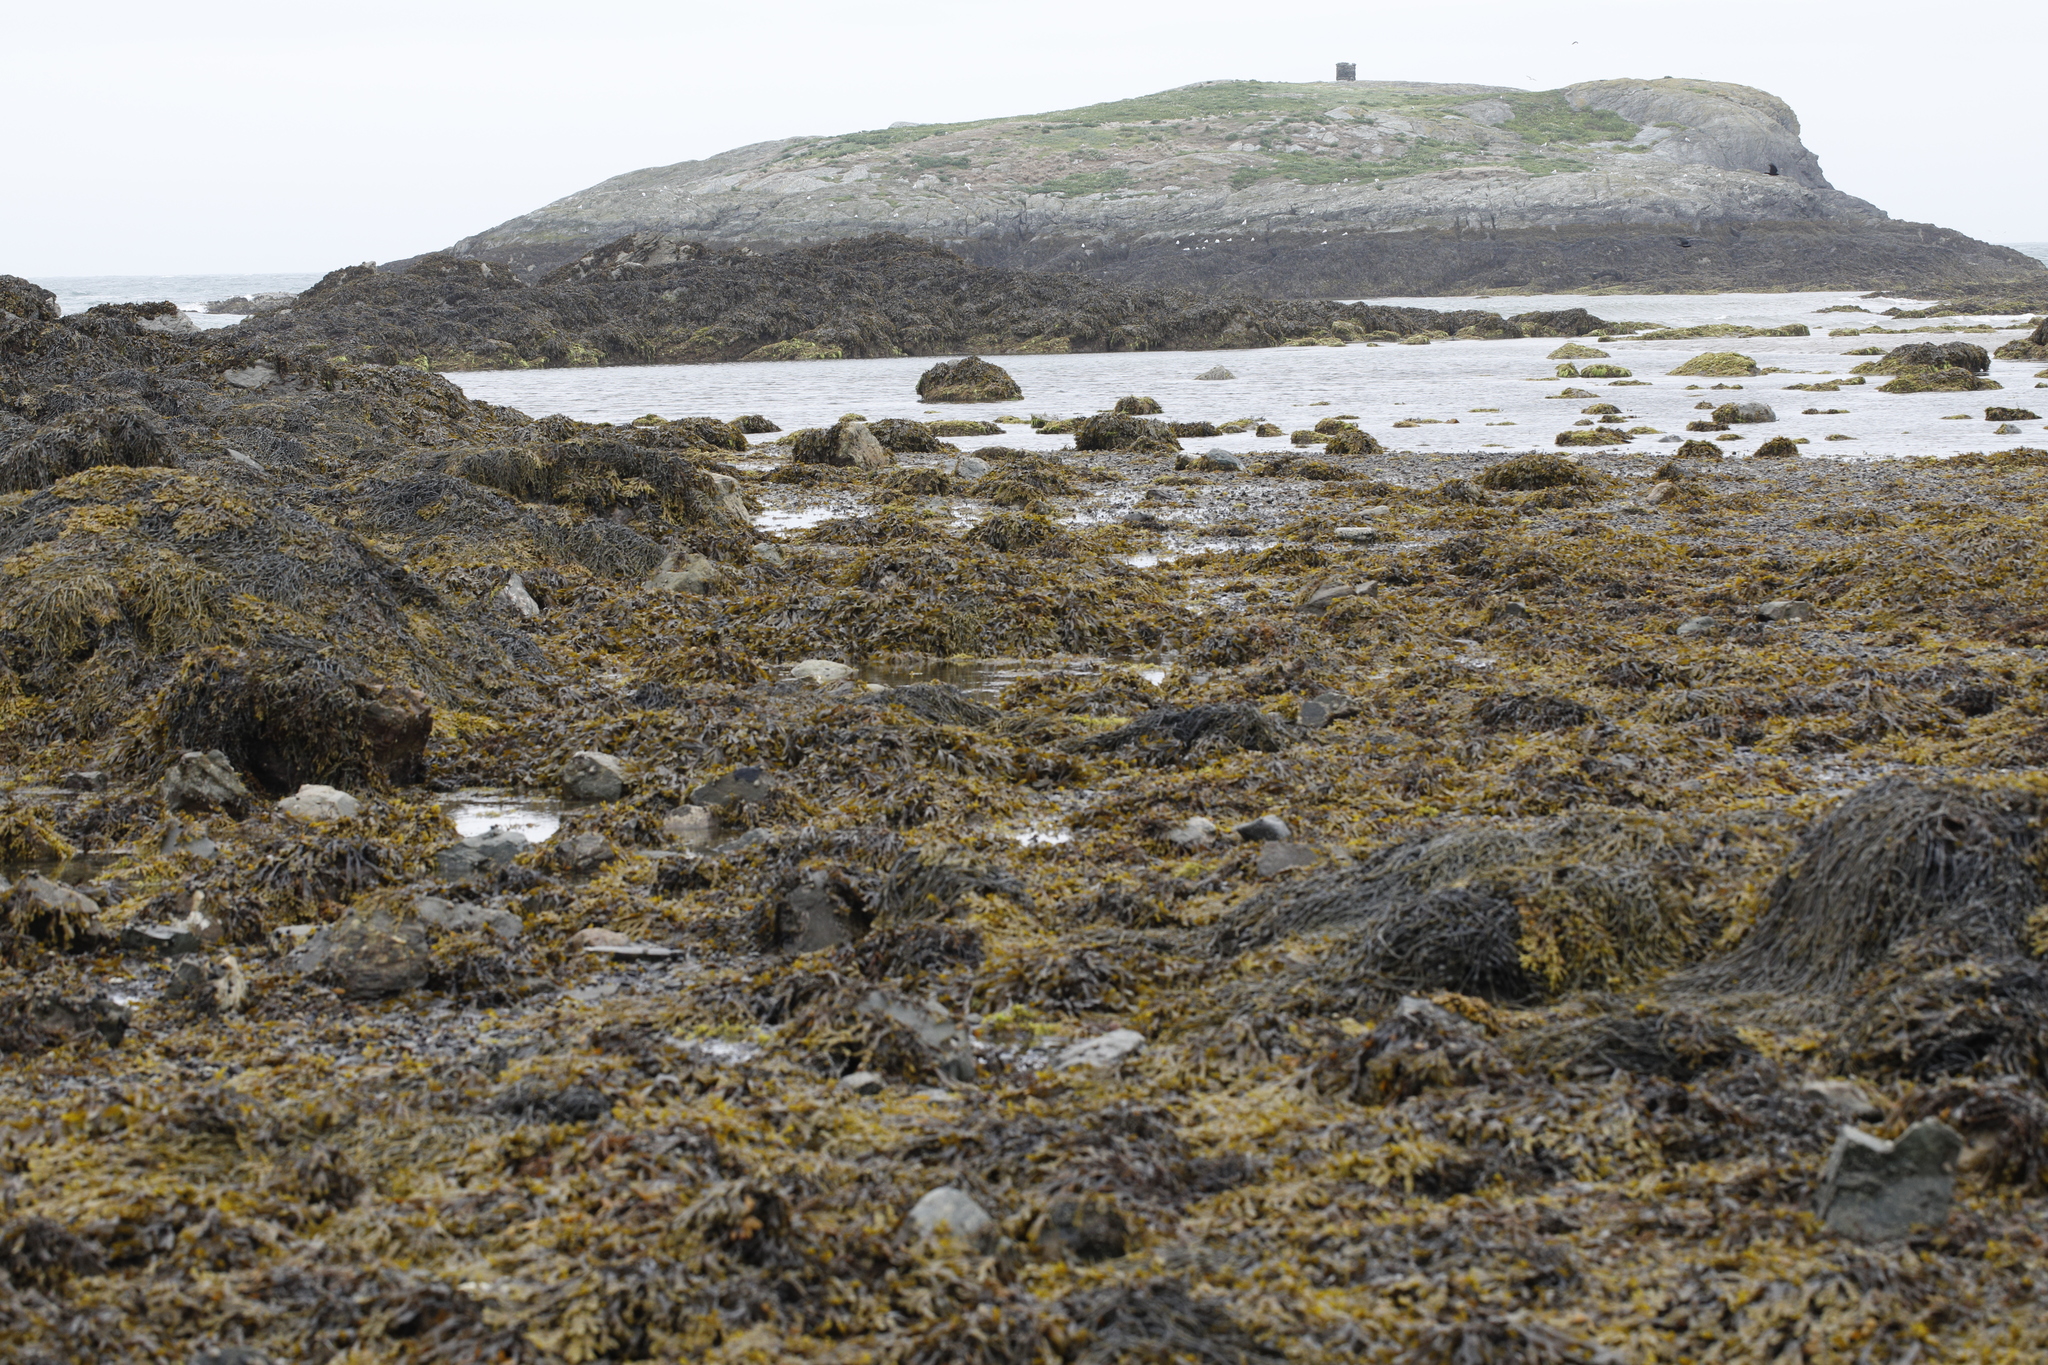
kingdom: Chromista
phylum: Ochrophyta
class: Phaeophyceae
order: Fucales
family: Fucaceae
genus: Ascophyllum
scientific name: Ascophyllum nodosum
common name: Knotted wrack
